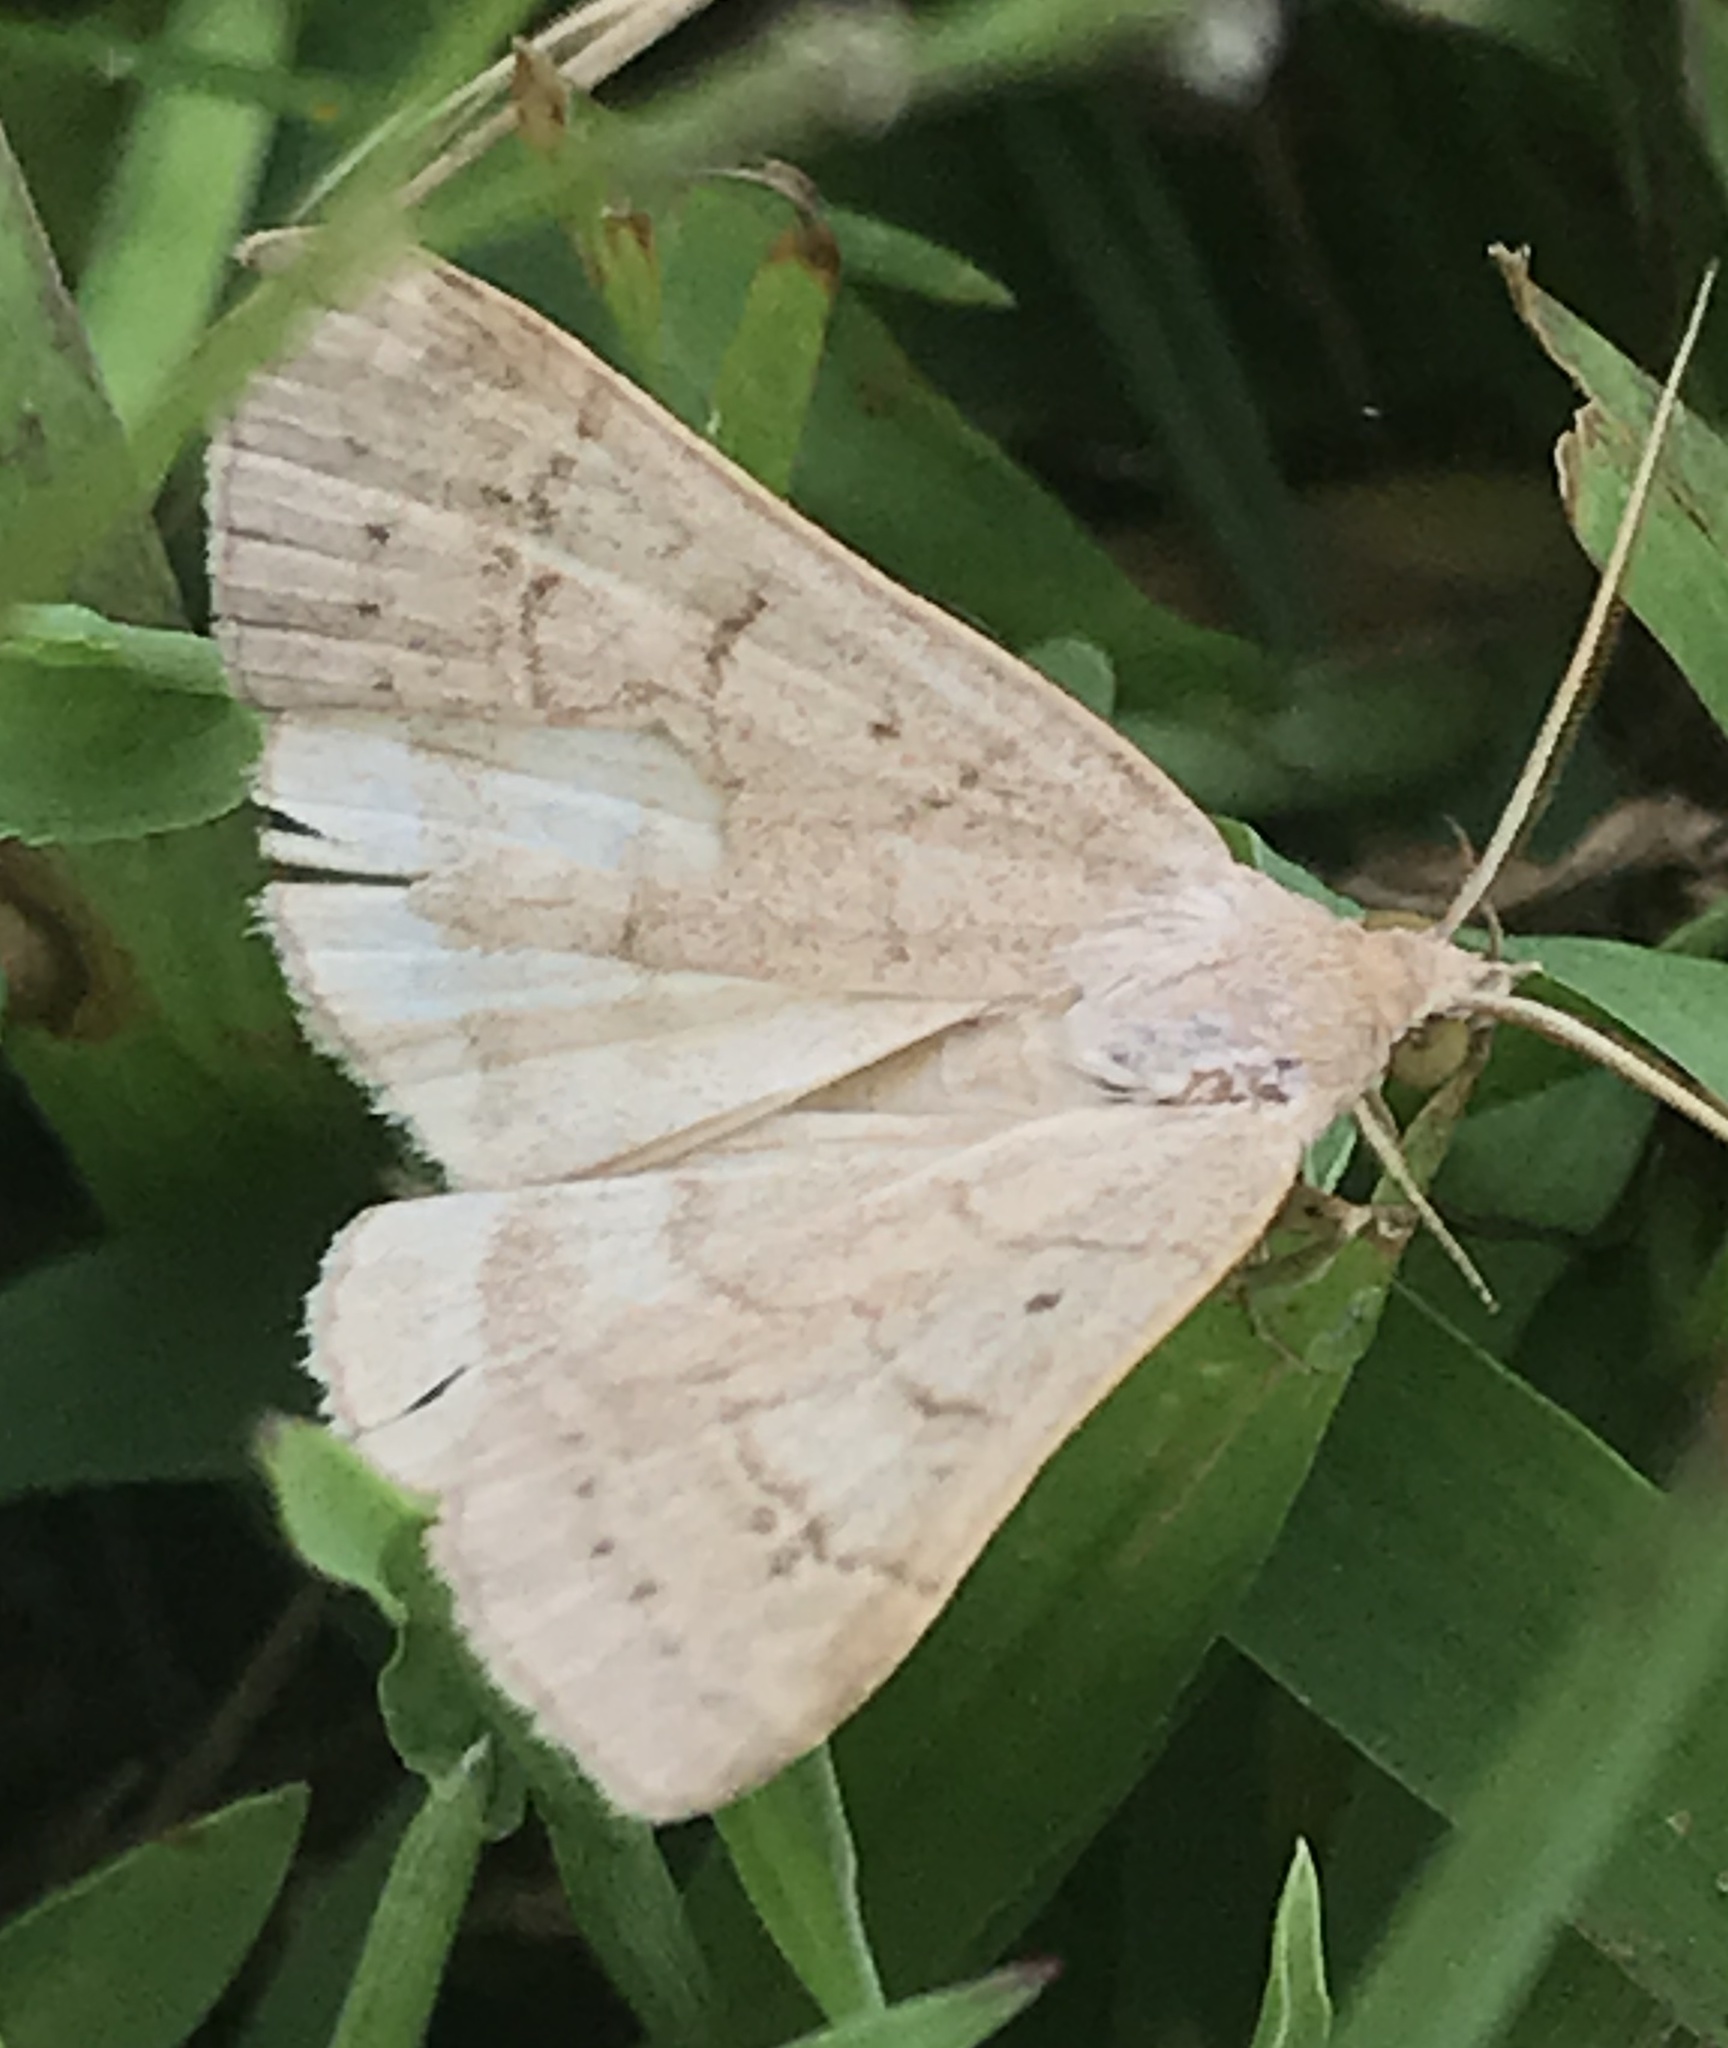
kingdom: Animalia
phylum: Arthropoda
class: Insecta
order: Lepidoptera
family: Erebidae
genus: Caenurgia
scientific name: Caenurgia chloropha
